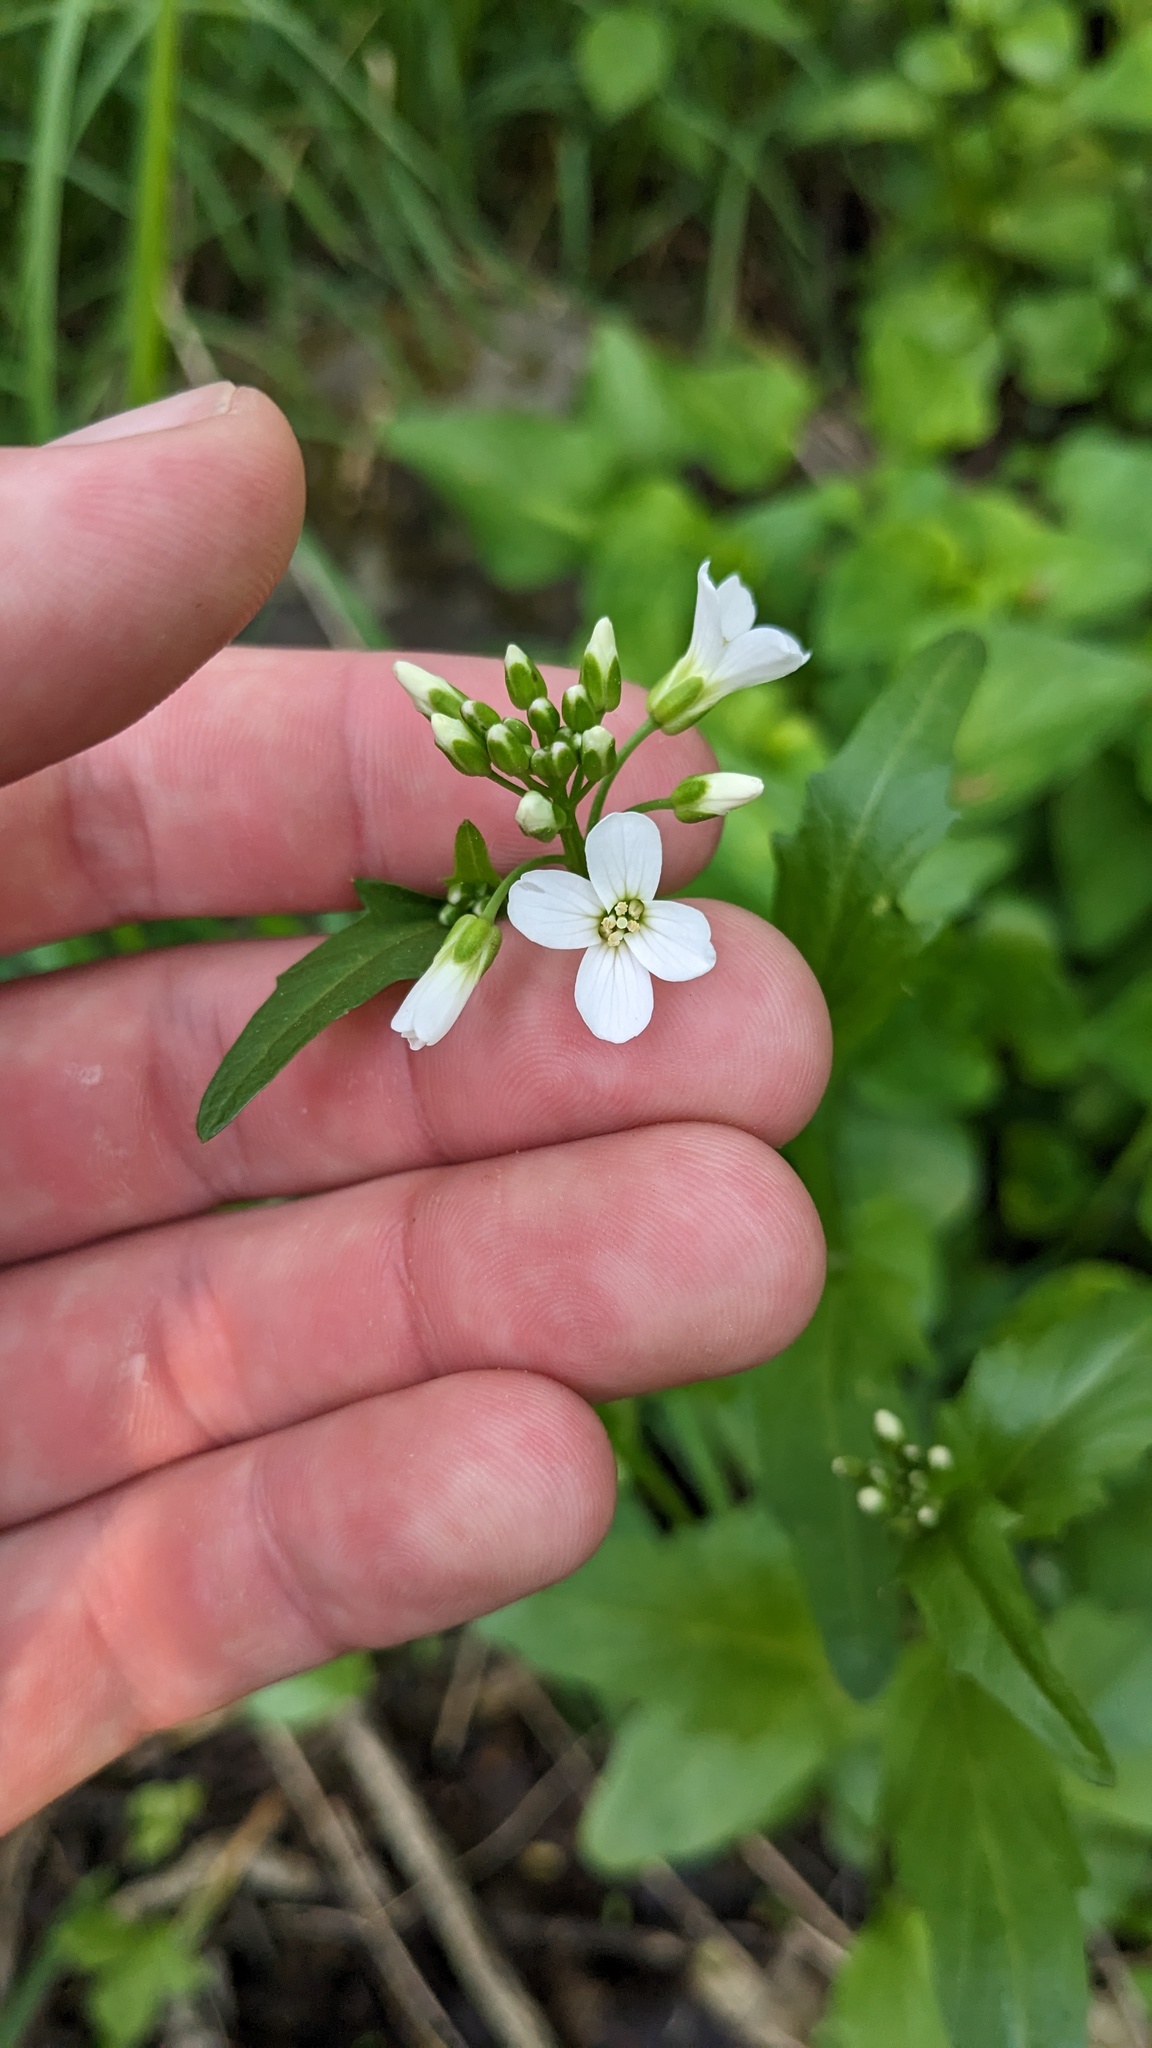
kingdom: Plantae
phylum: Tracheophyta
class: Magnoliopsida
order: Brassicales
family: Brassicaceae
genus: Cardamine
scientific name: Cardamine bulbosa
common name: Spring cress
